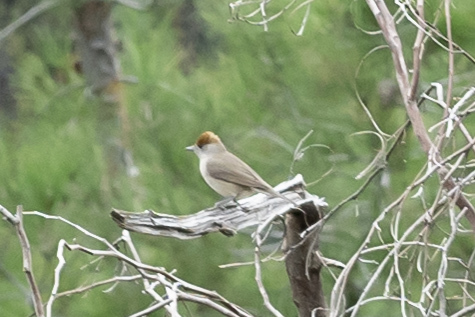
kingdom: Animalia
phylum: Chordata
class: Aves
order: Passeriformes
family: Sylviidae
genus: Sylvia
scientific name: Sylvia atricapilla
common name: Eurasian blackcap
